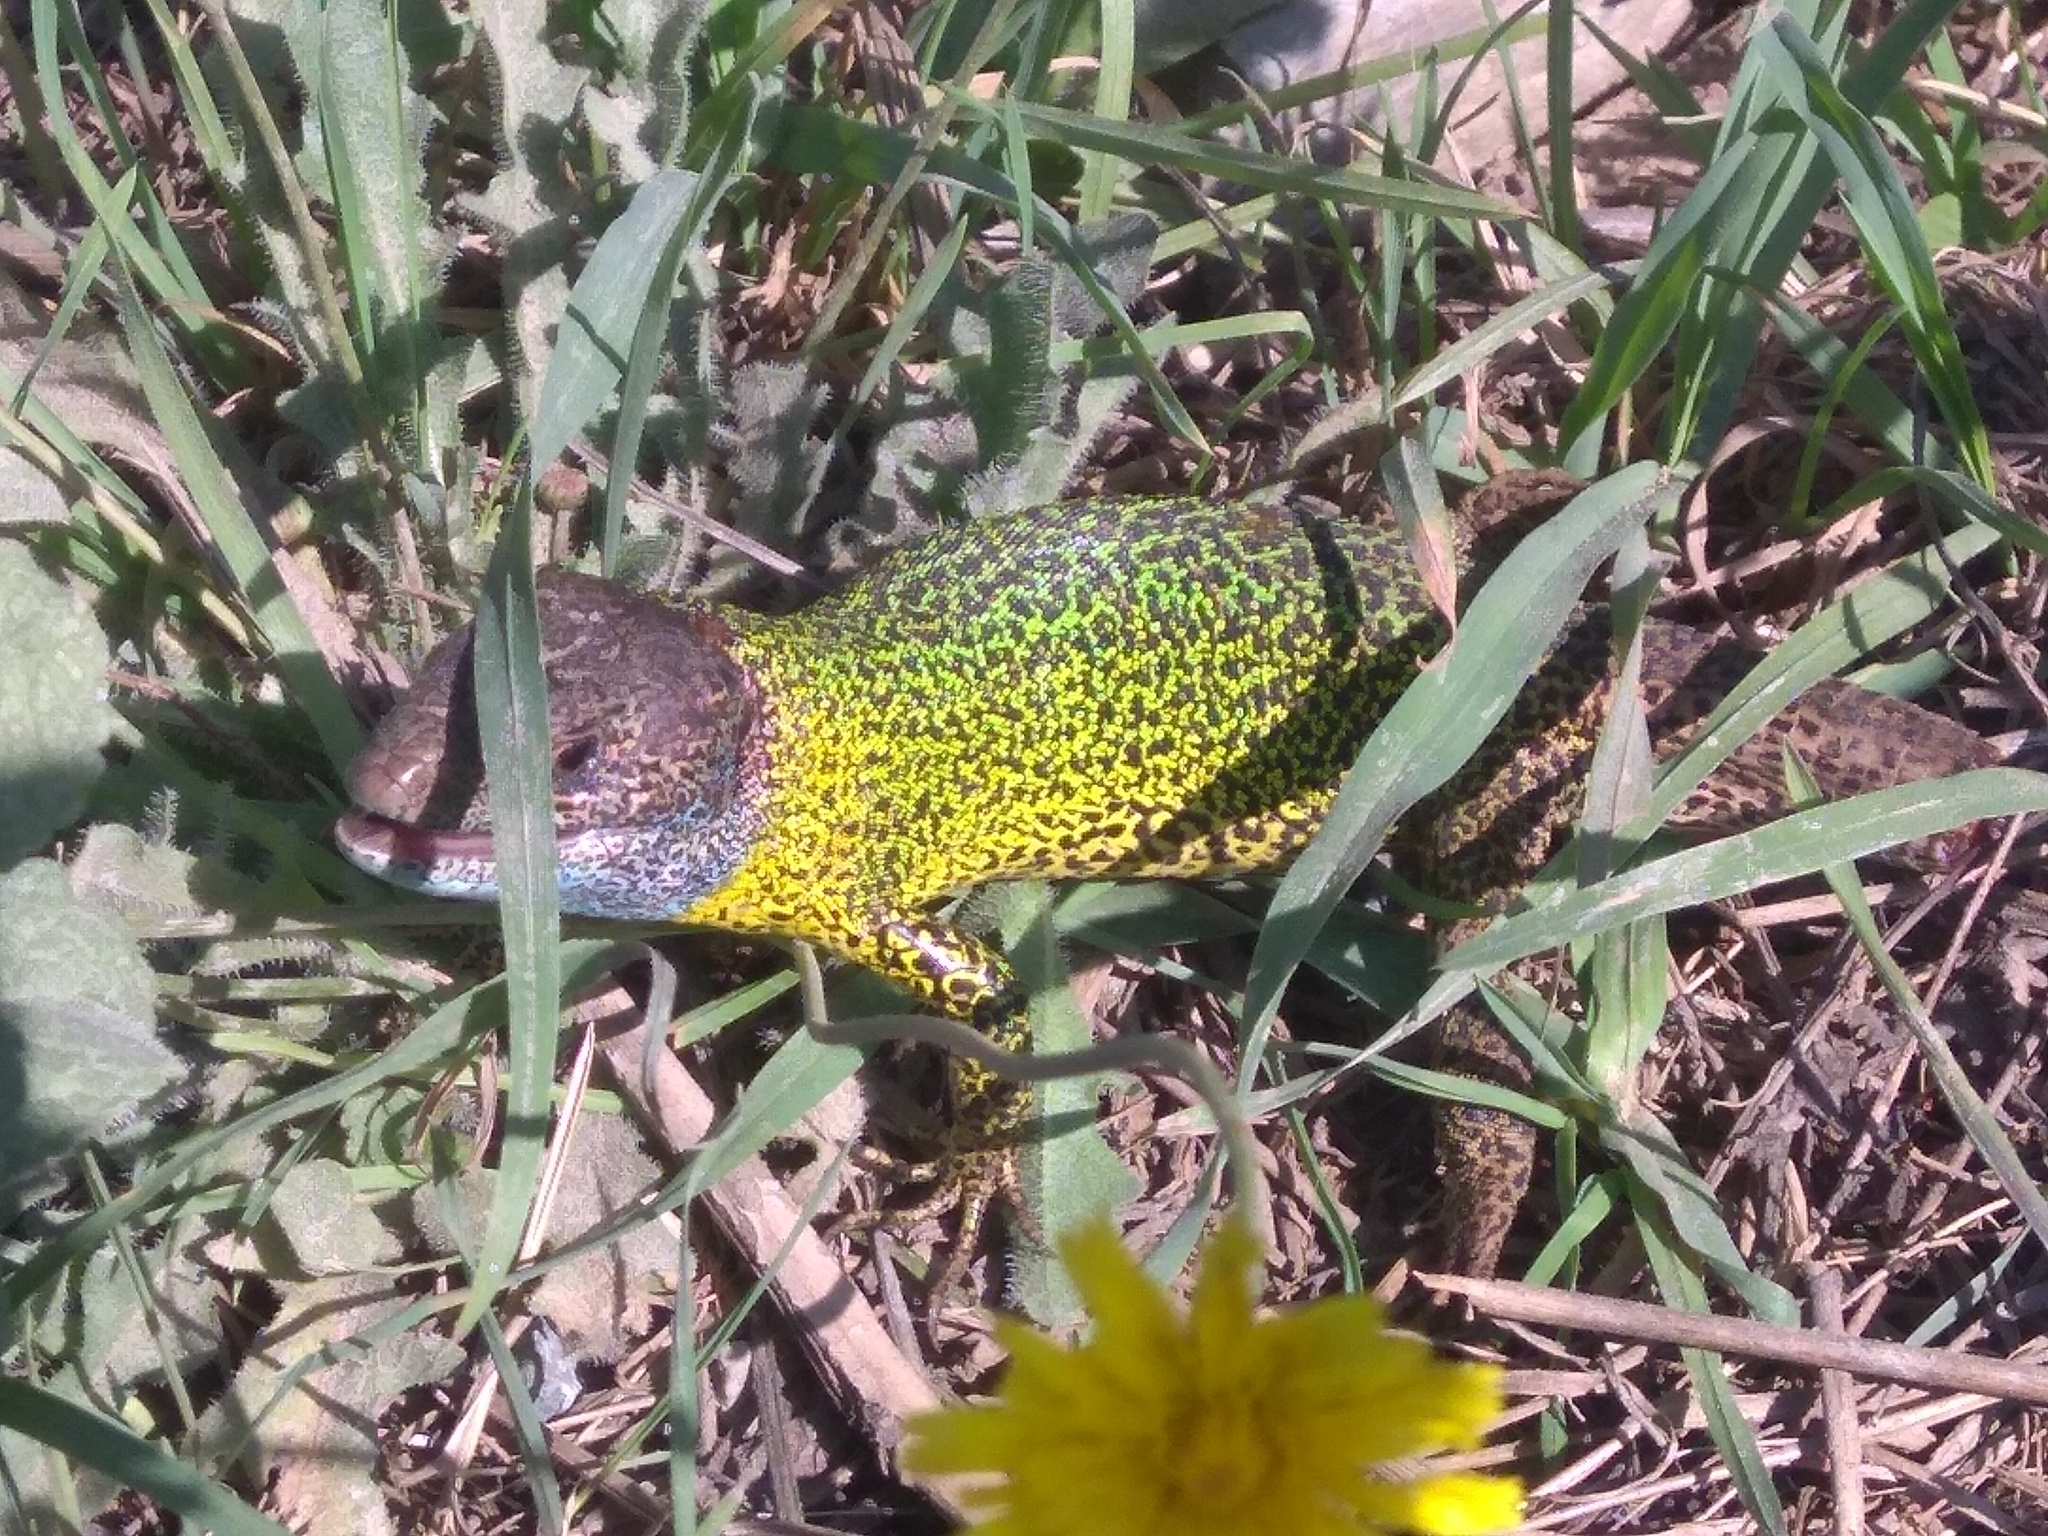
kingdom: Animalia
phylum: Chordata
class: Squamata
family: Lacertidae
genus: Lacerta
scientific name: Lacerta schreiberi
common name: Iberian emerald lizard
